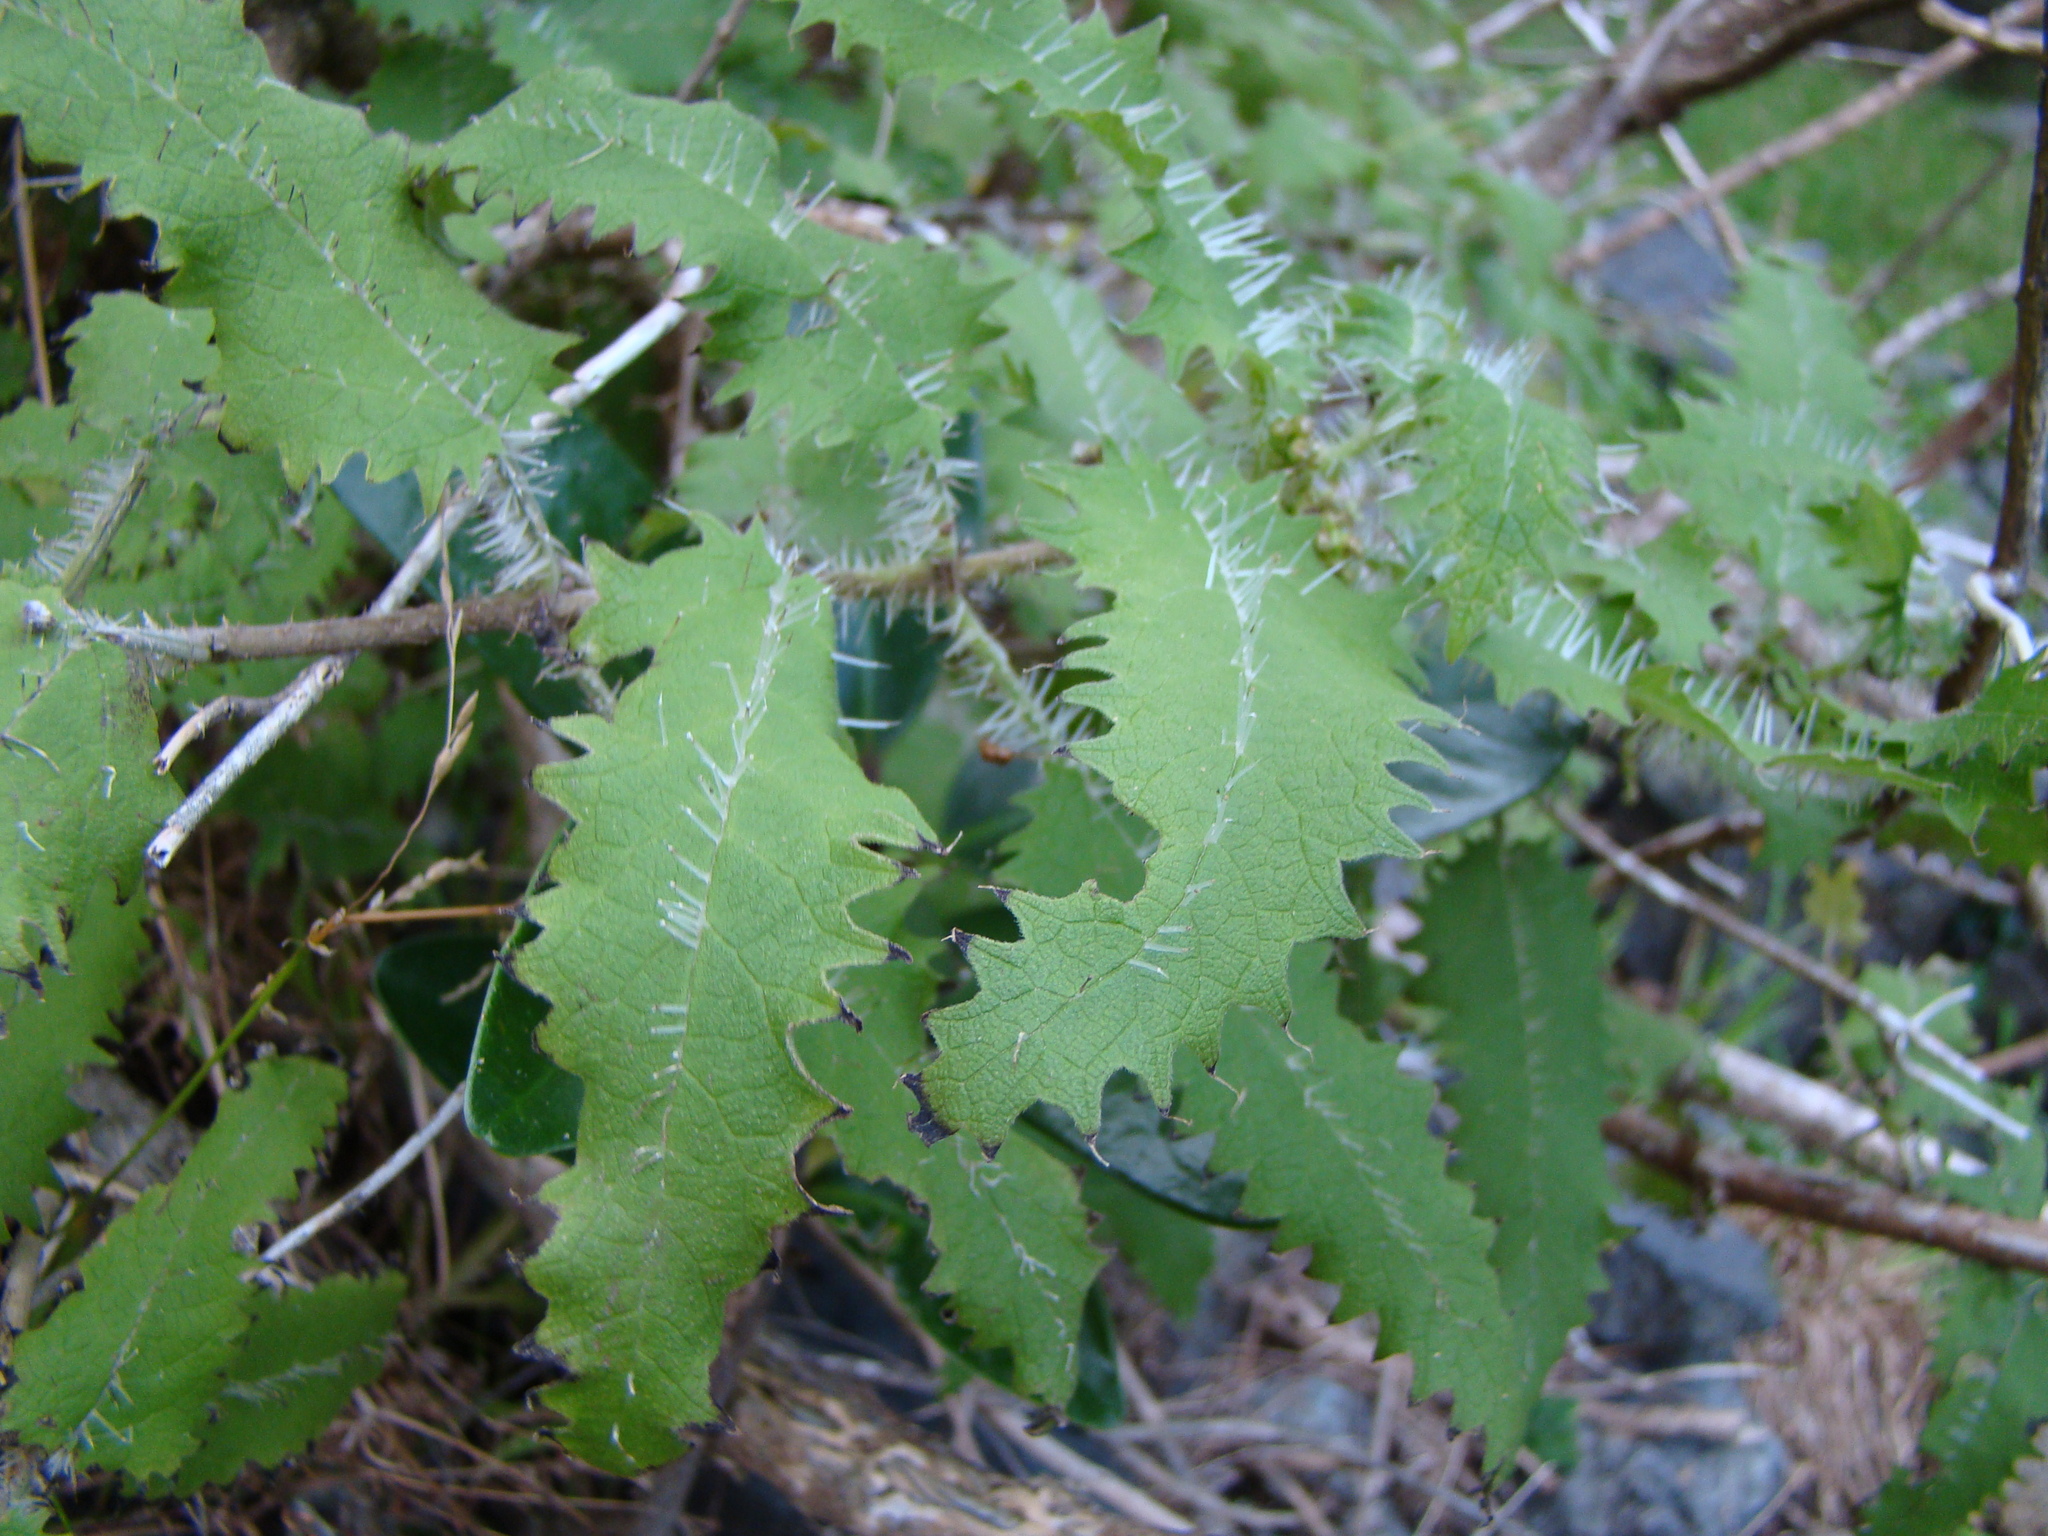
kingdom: Plantae
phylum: Tracheophyta
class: Magnoliopsida
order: Rosales
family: Urticaceae
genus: Urtica
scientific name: Urtica ferox
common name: Tree nettle
